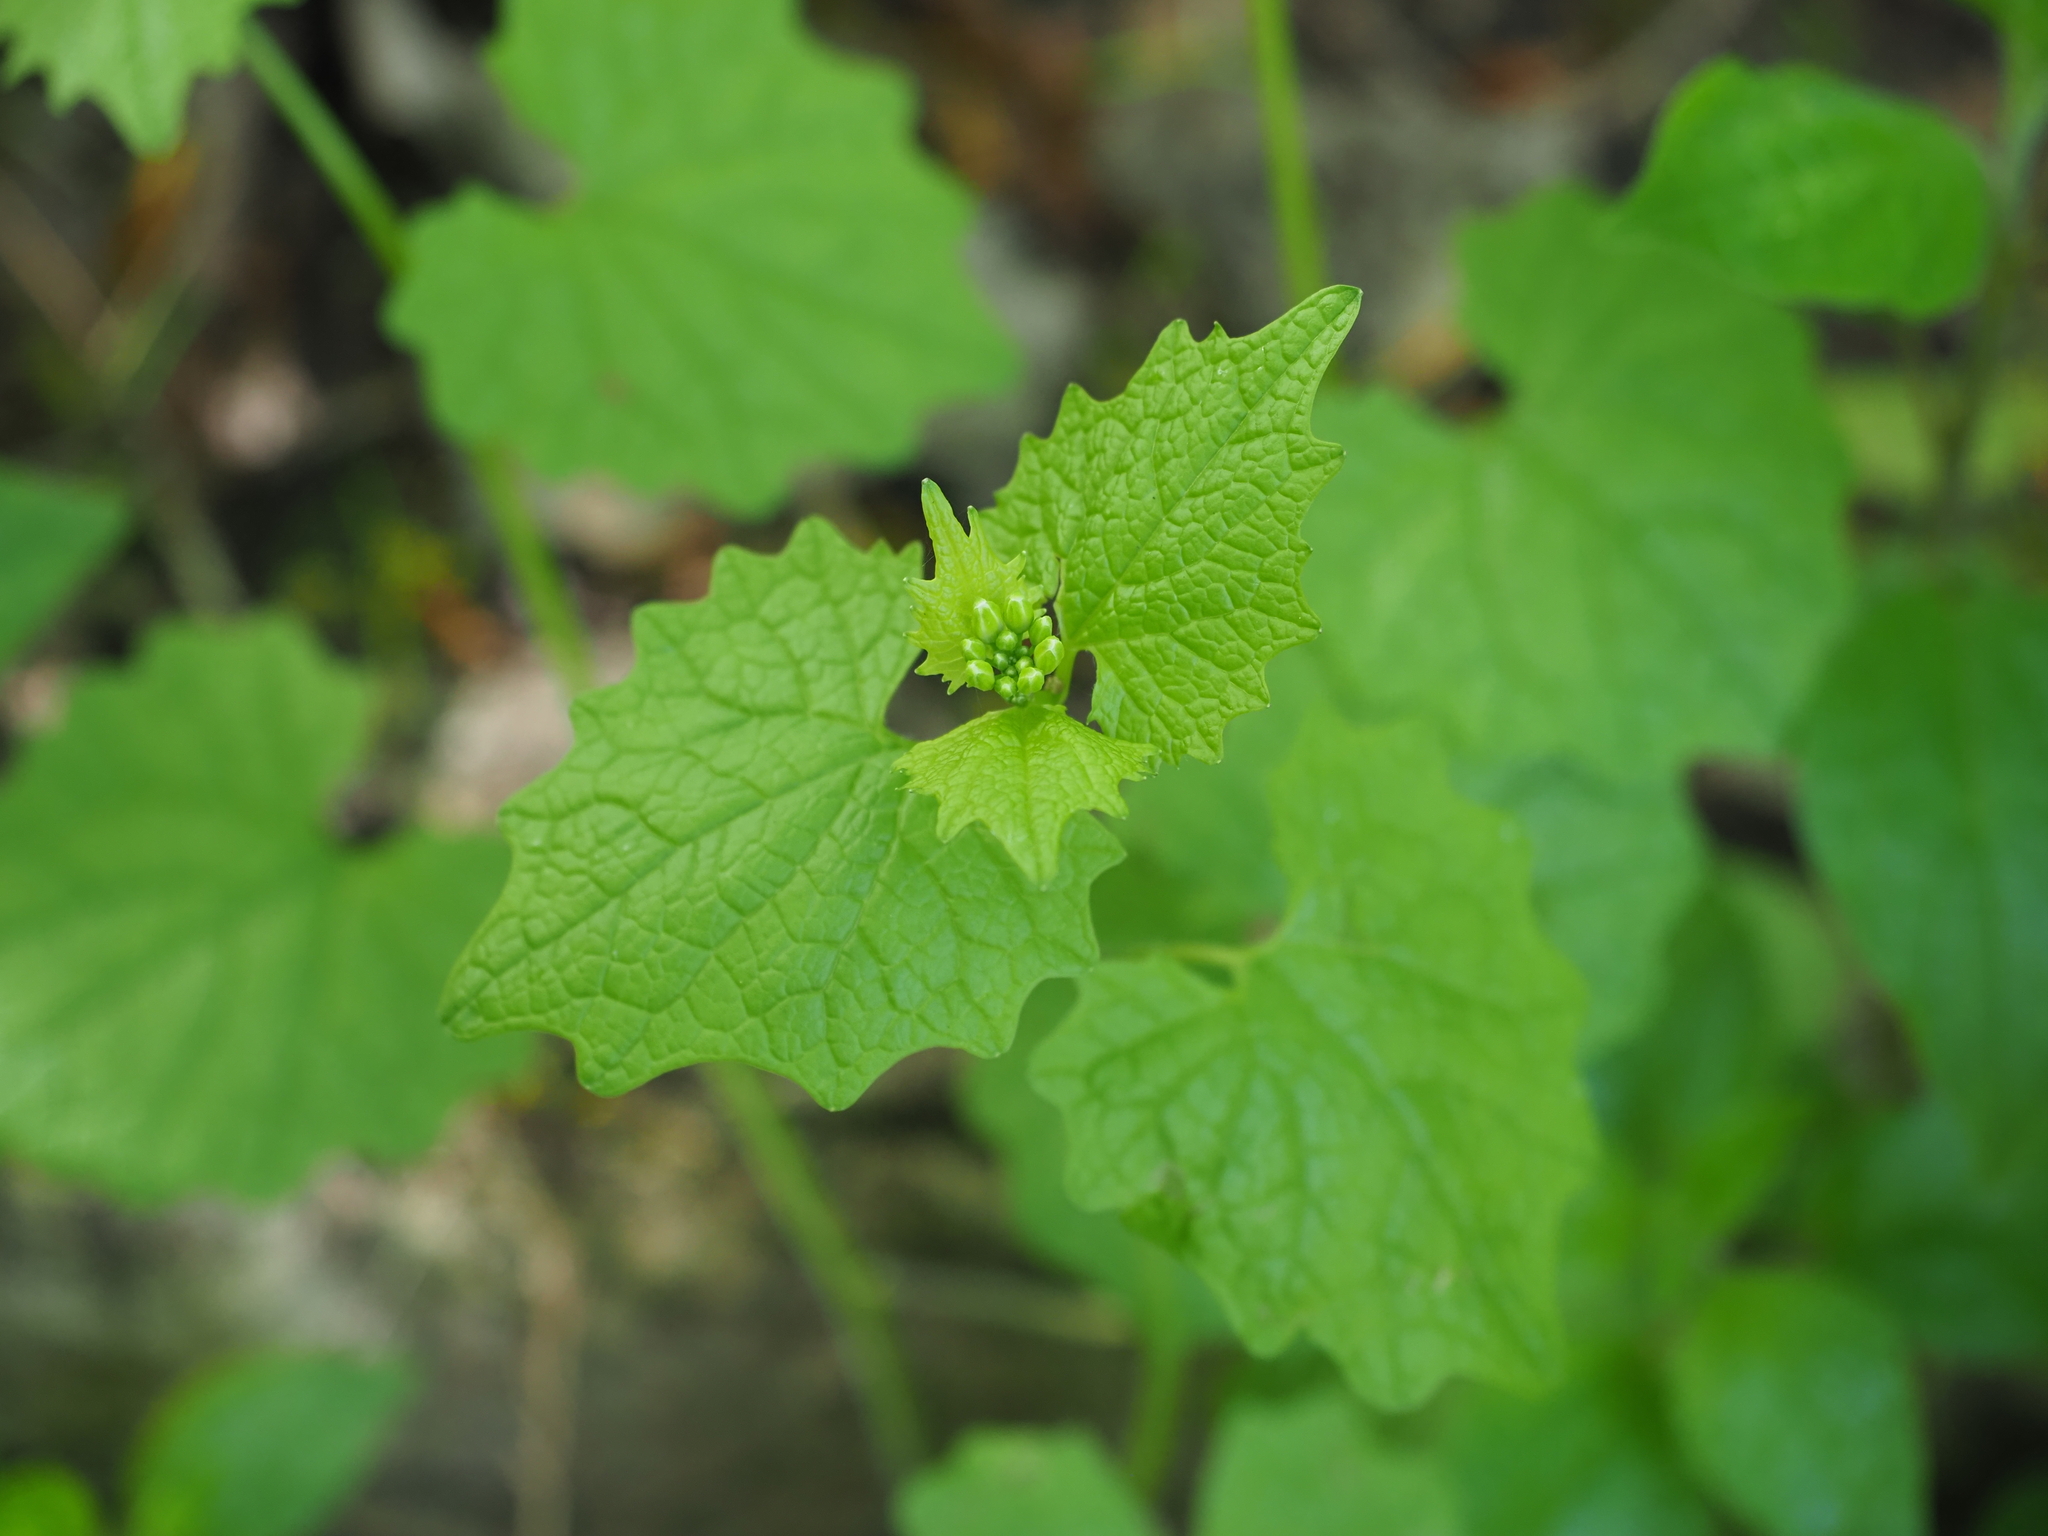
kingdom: Plantae
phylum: Tracheophyta
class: Magnoliopsida
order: Brassicales
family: Brassicaceae
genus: Alliaria
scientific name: Alliaria petiolata
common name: Garlic mustard
